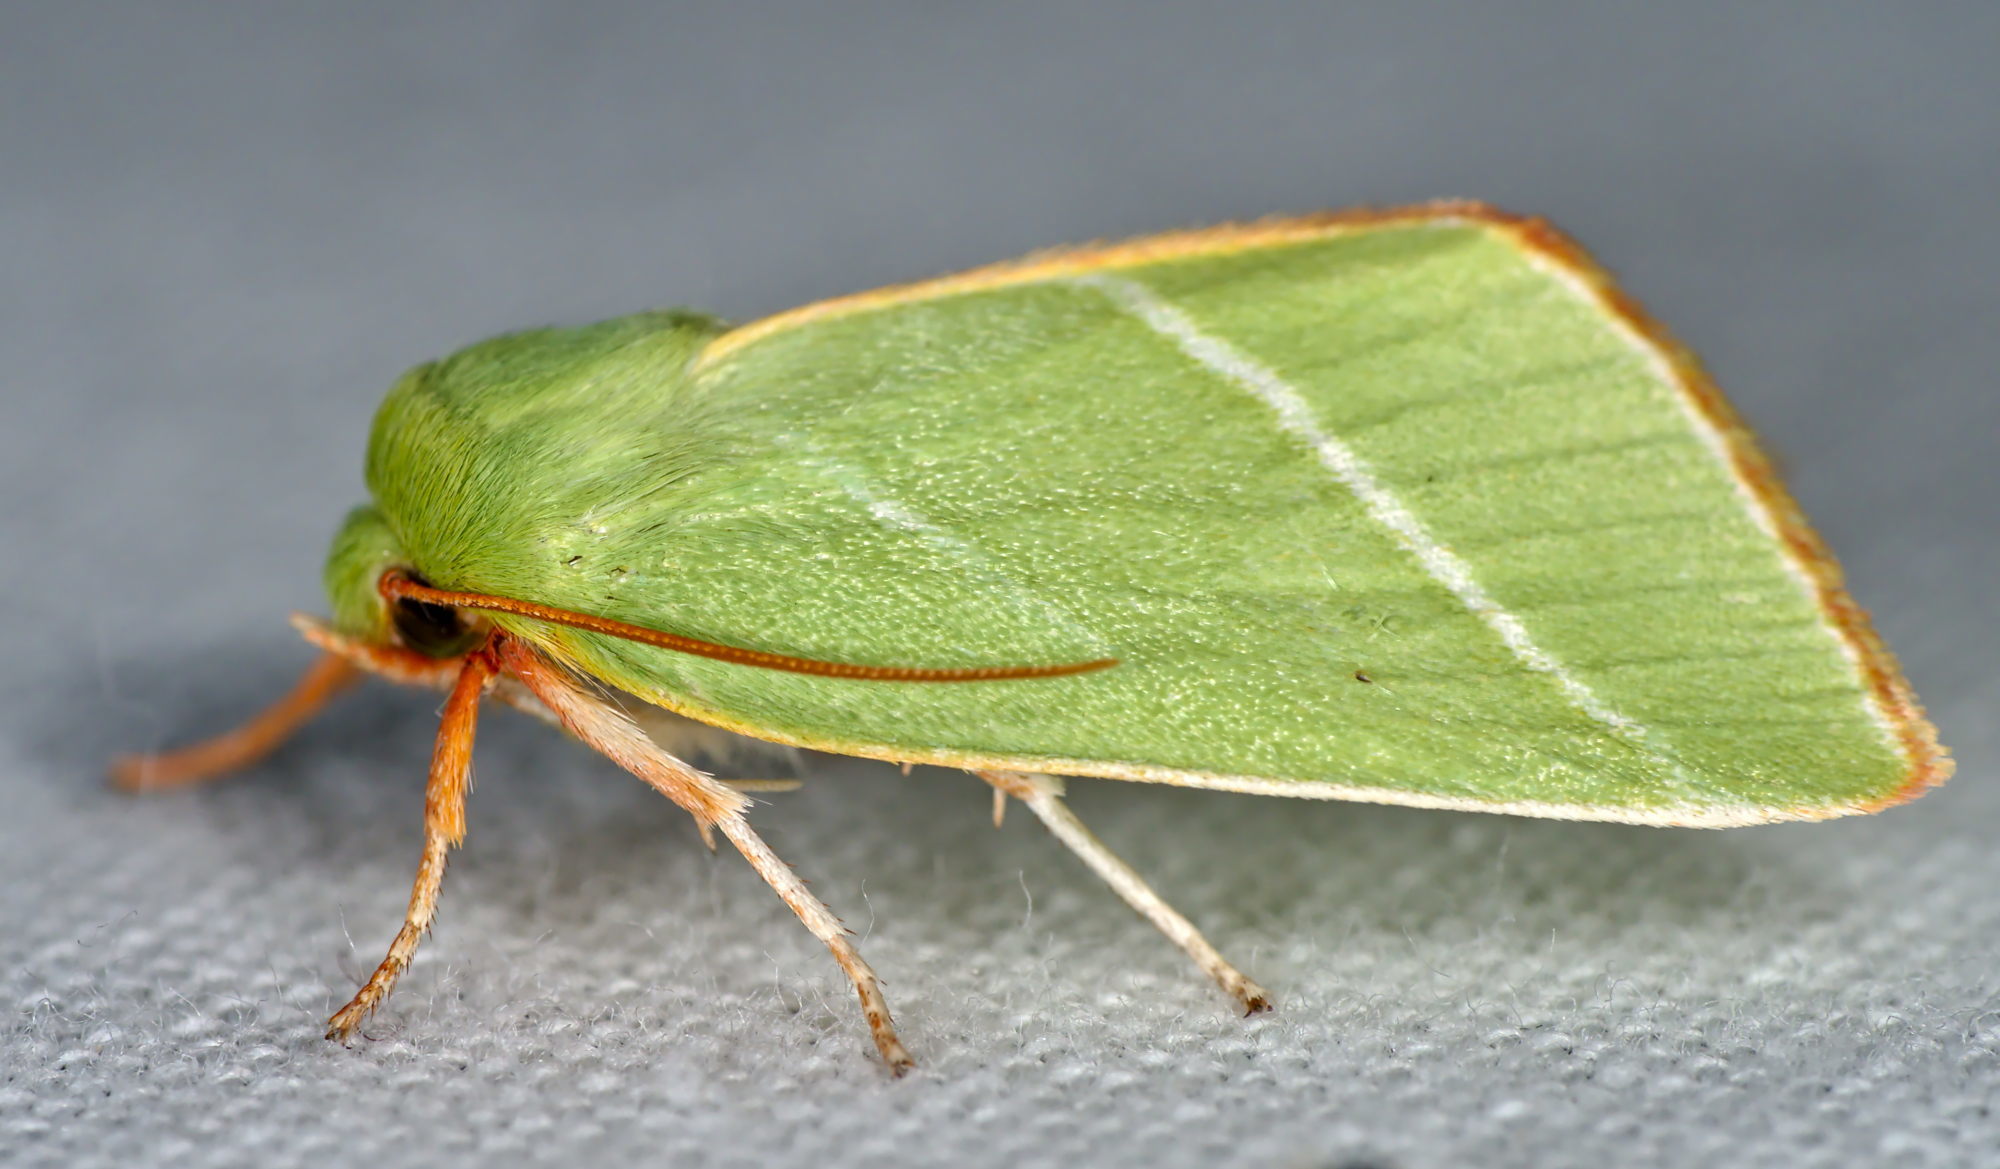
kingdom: Animalia
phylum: Arthropoda
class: Insecta
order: Lepidoptera
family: Nolidae
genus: Pseudoips
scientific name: Pseudoips prasinana
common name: Green silver-lines
